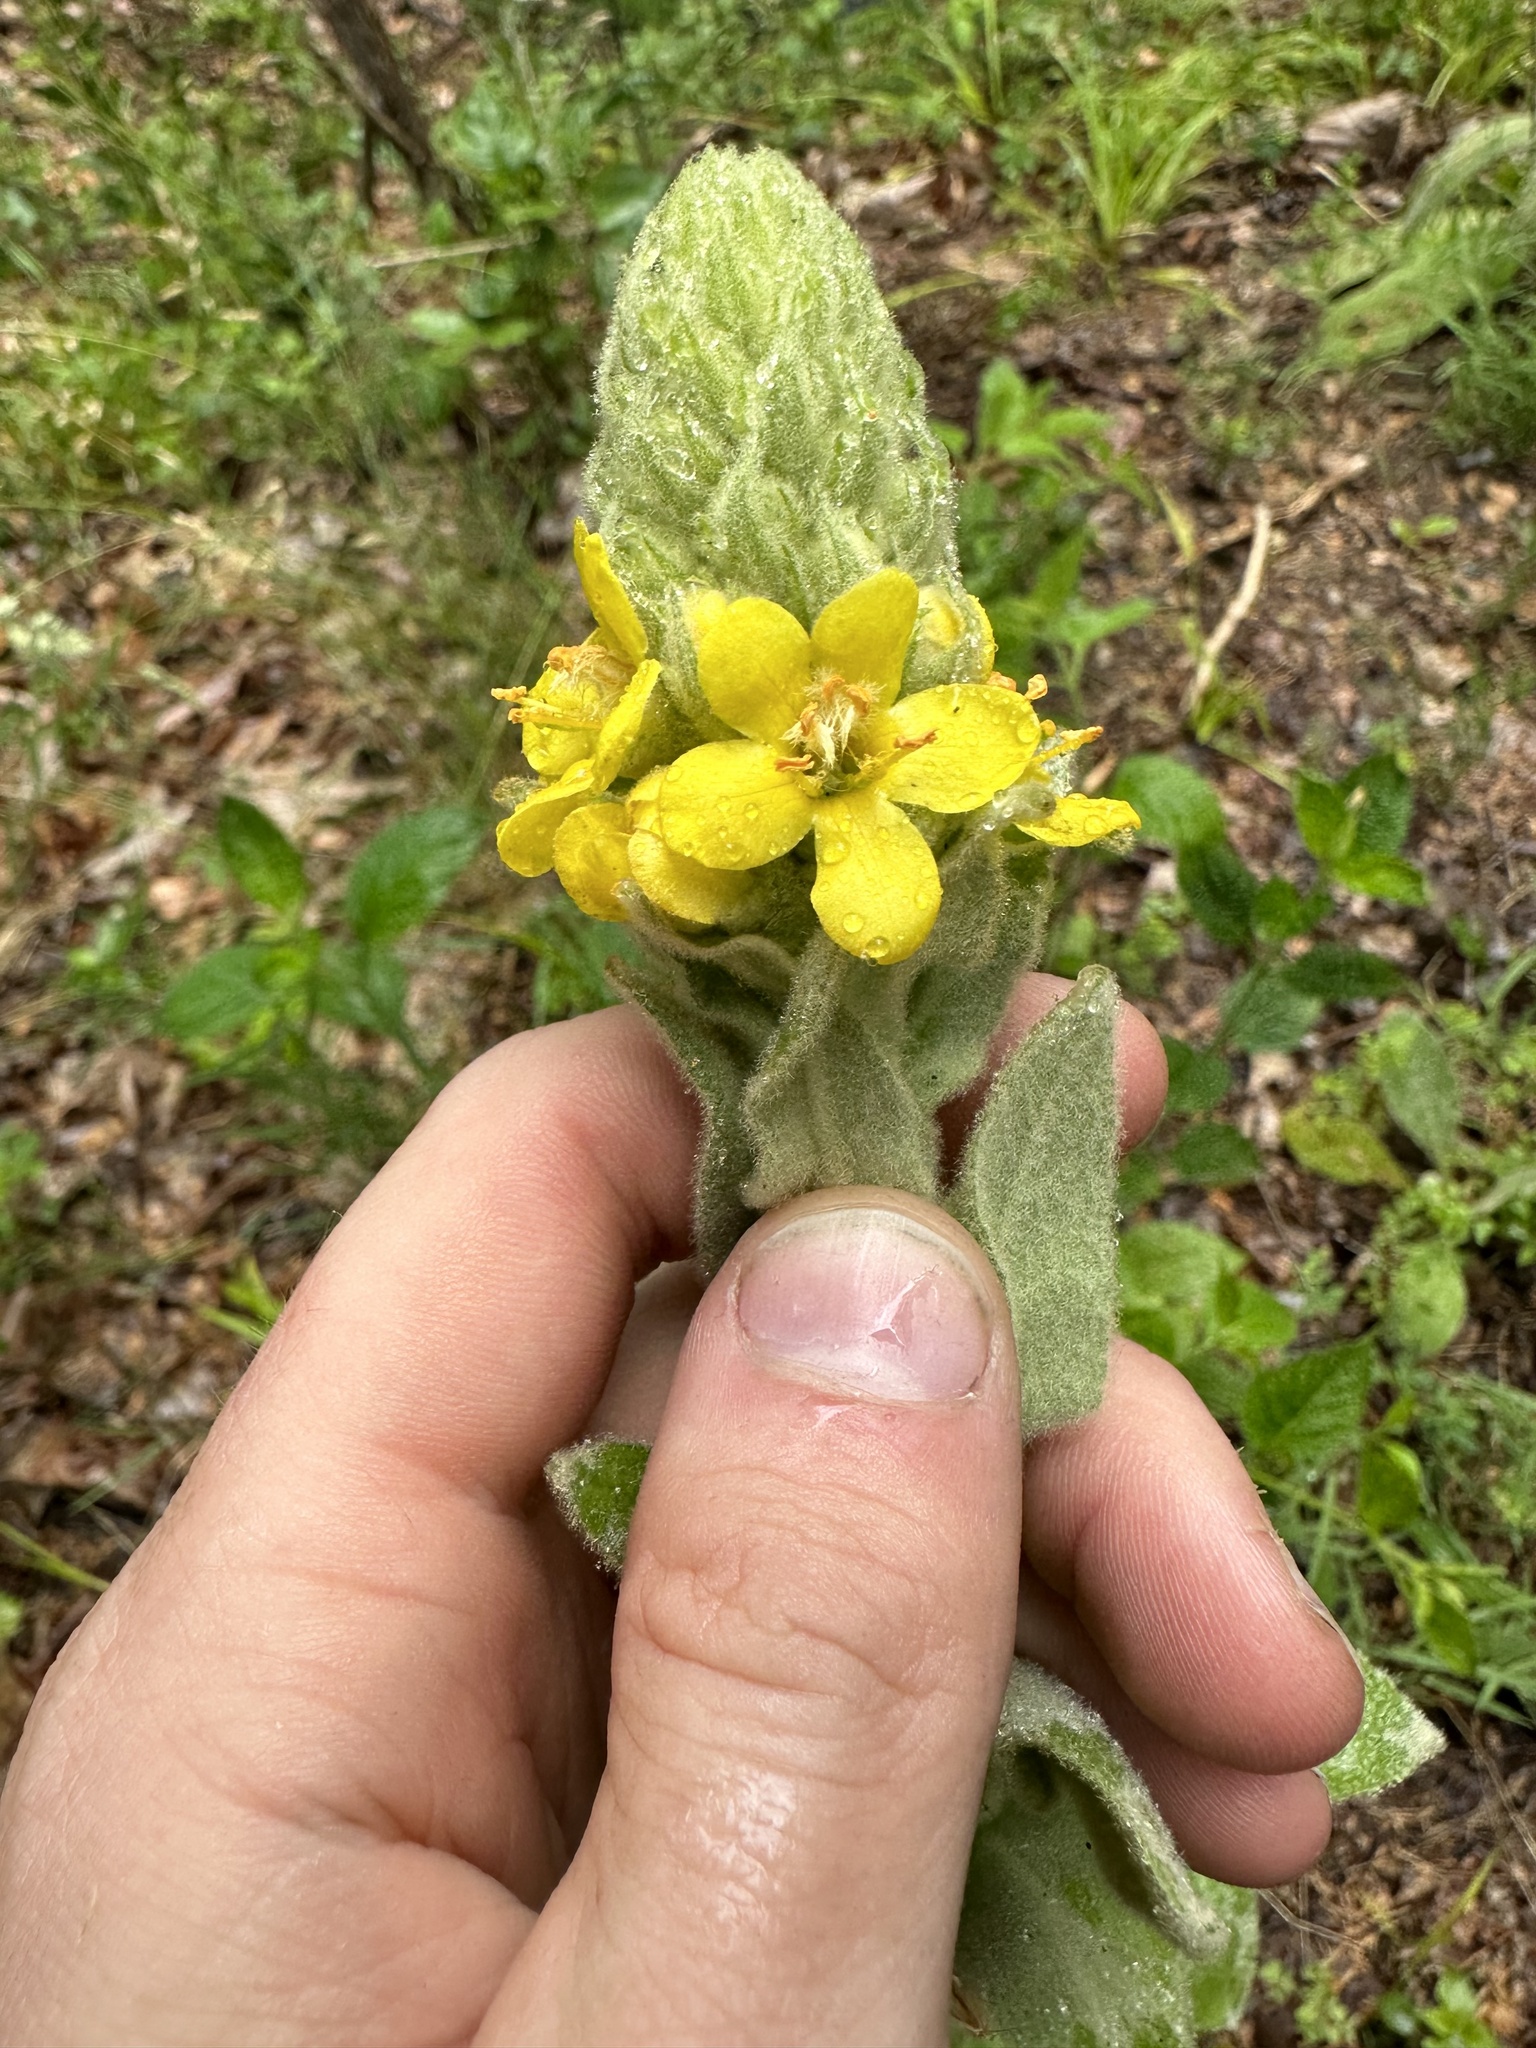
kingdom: Plantae
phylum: Tracheophyta
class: Magnoliopsida
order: Lamiales
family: Scrophulariaceae
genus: Verbascum
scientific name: Verbascum thapsus
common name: Common mullein
